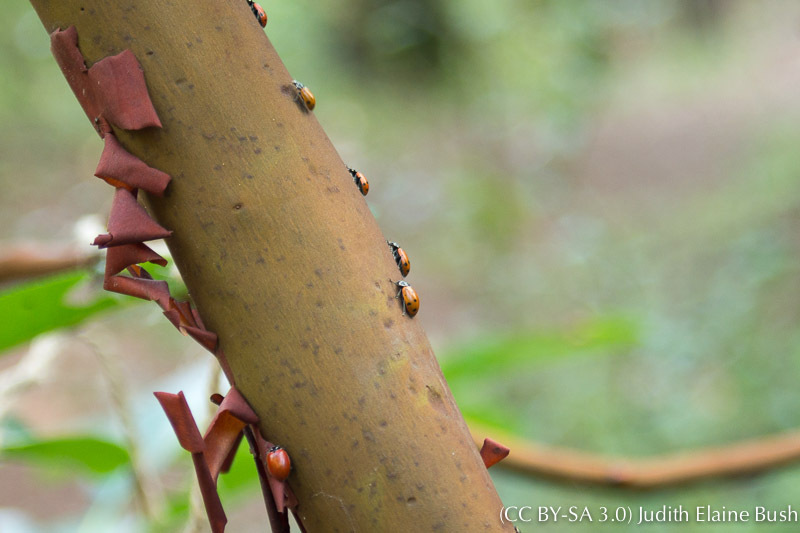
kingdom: Plantae
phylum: Tracheophyta
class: Magnoliopsida
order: Ericales
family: Ericaceae
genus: Arbutus
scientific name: Arbutus menziesii
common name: Pacific madrone
